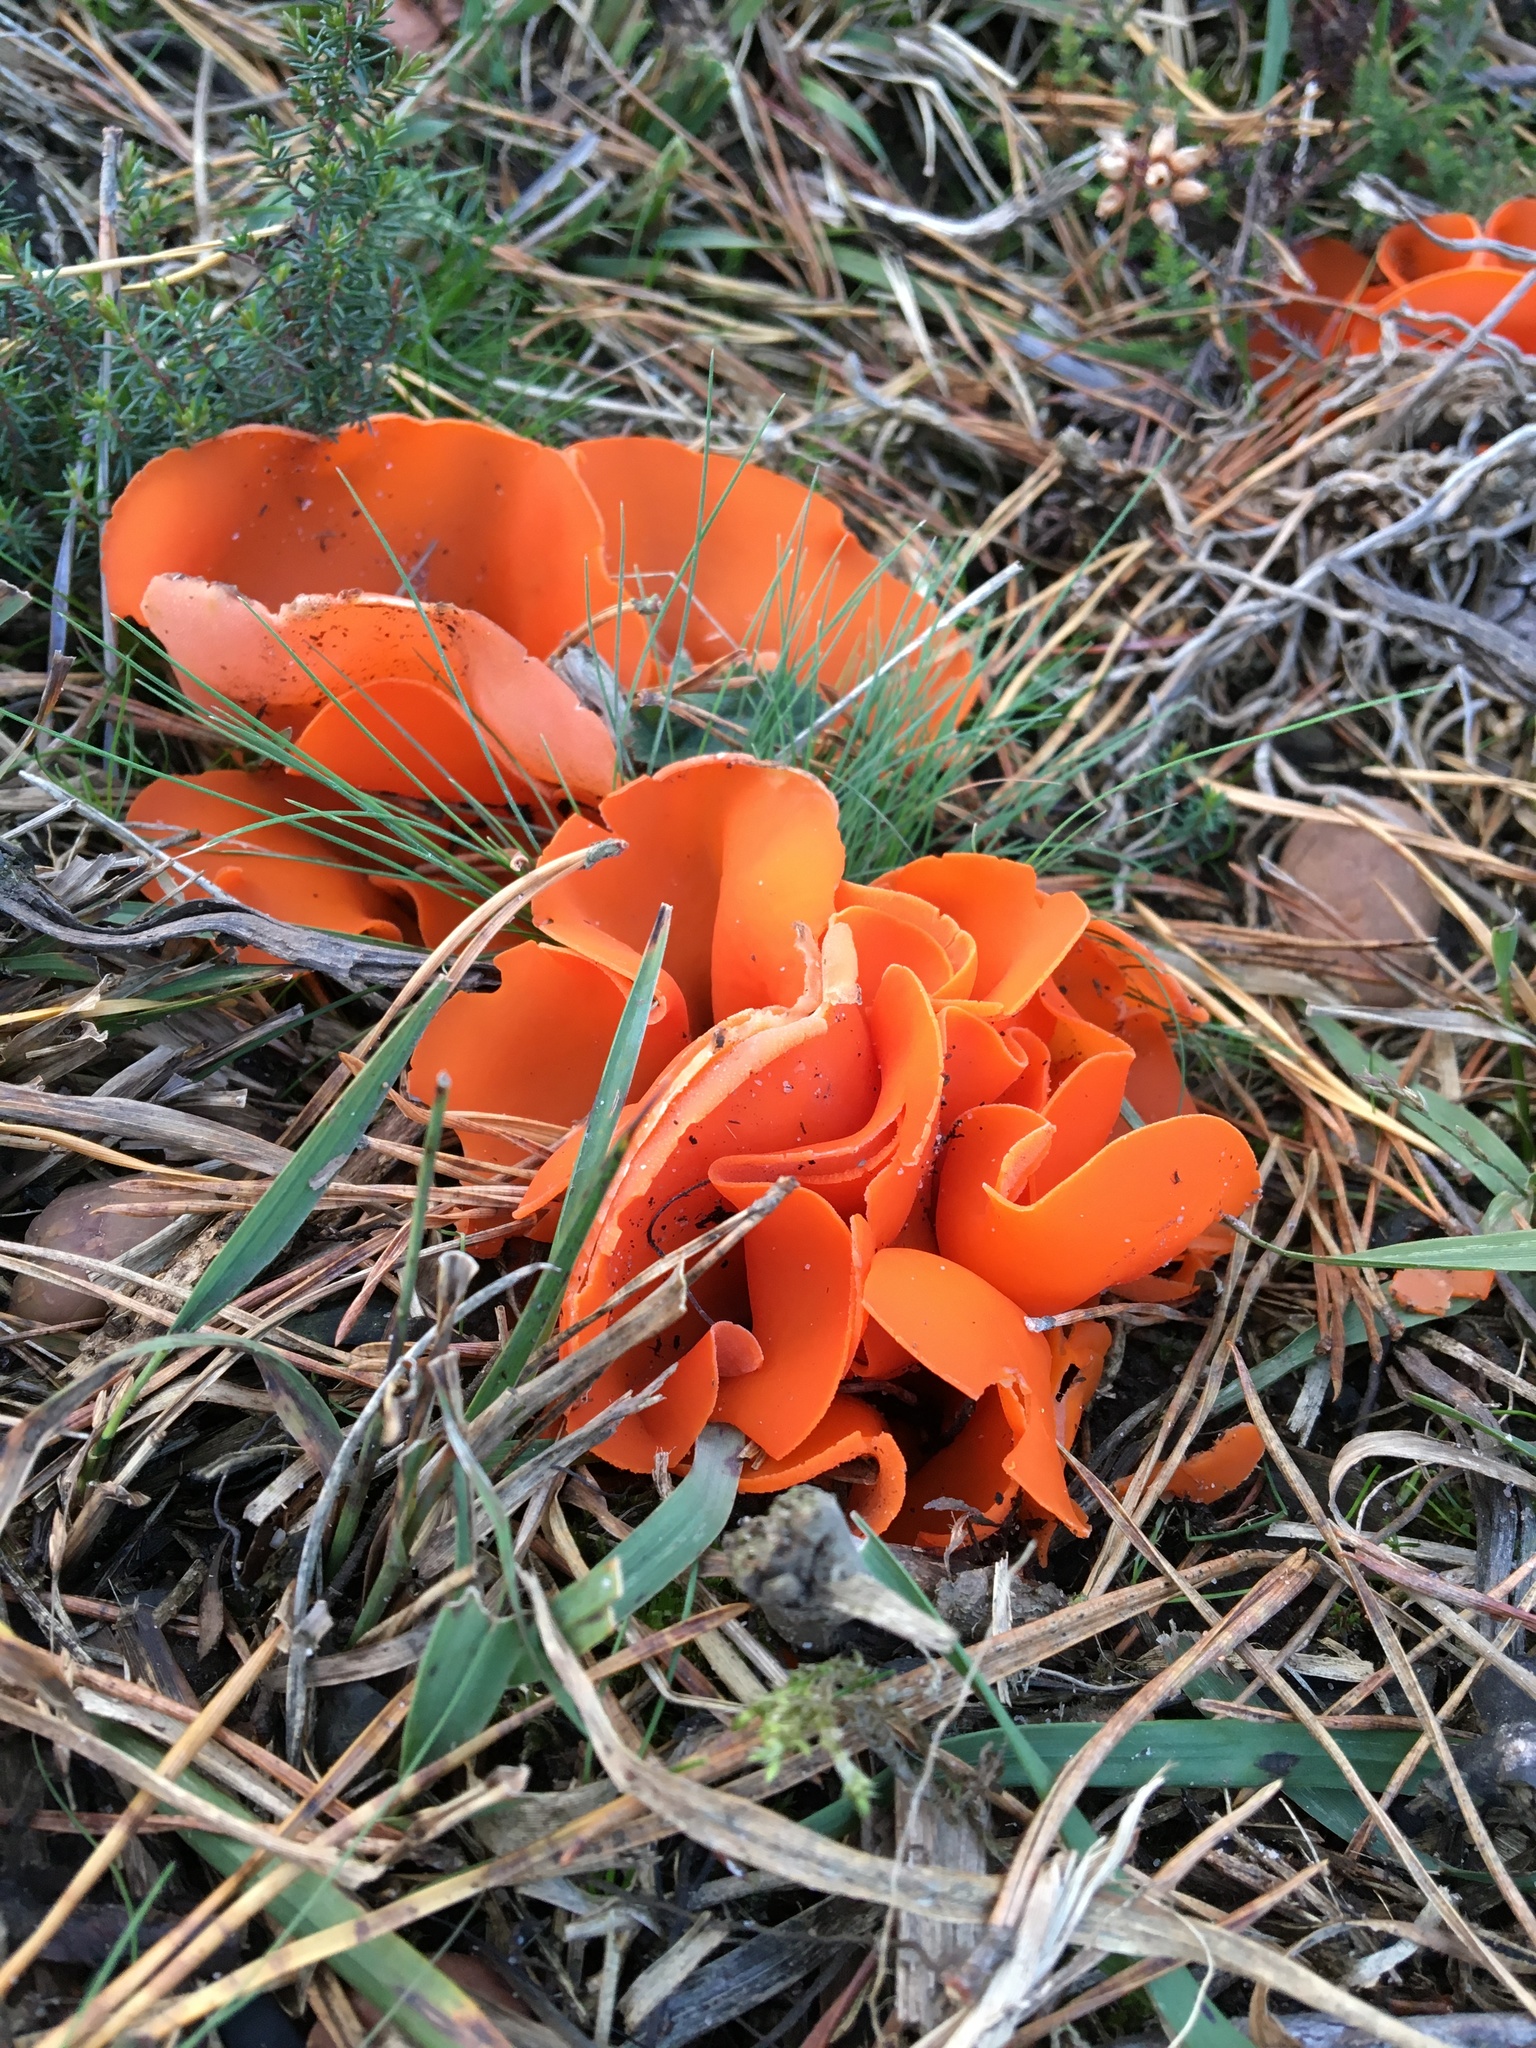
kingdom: Fungi
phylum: Ascomycota
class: Pezizomycetes
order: Pezizales
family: Pyronemataceae
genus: Aleuria
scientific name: Aleuria aurantia
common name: Orange peel fungus
